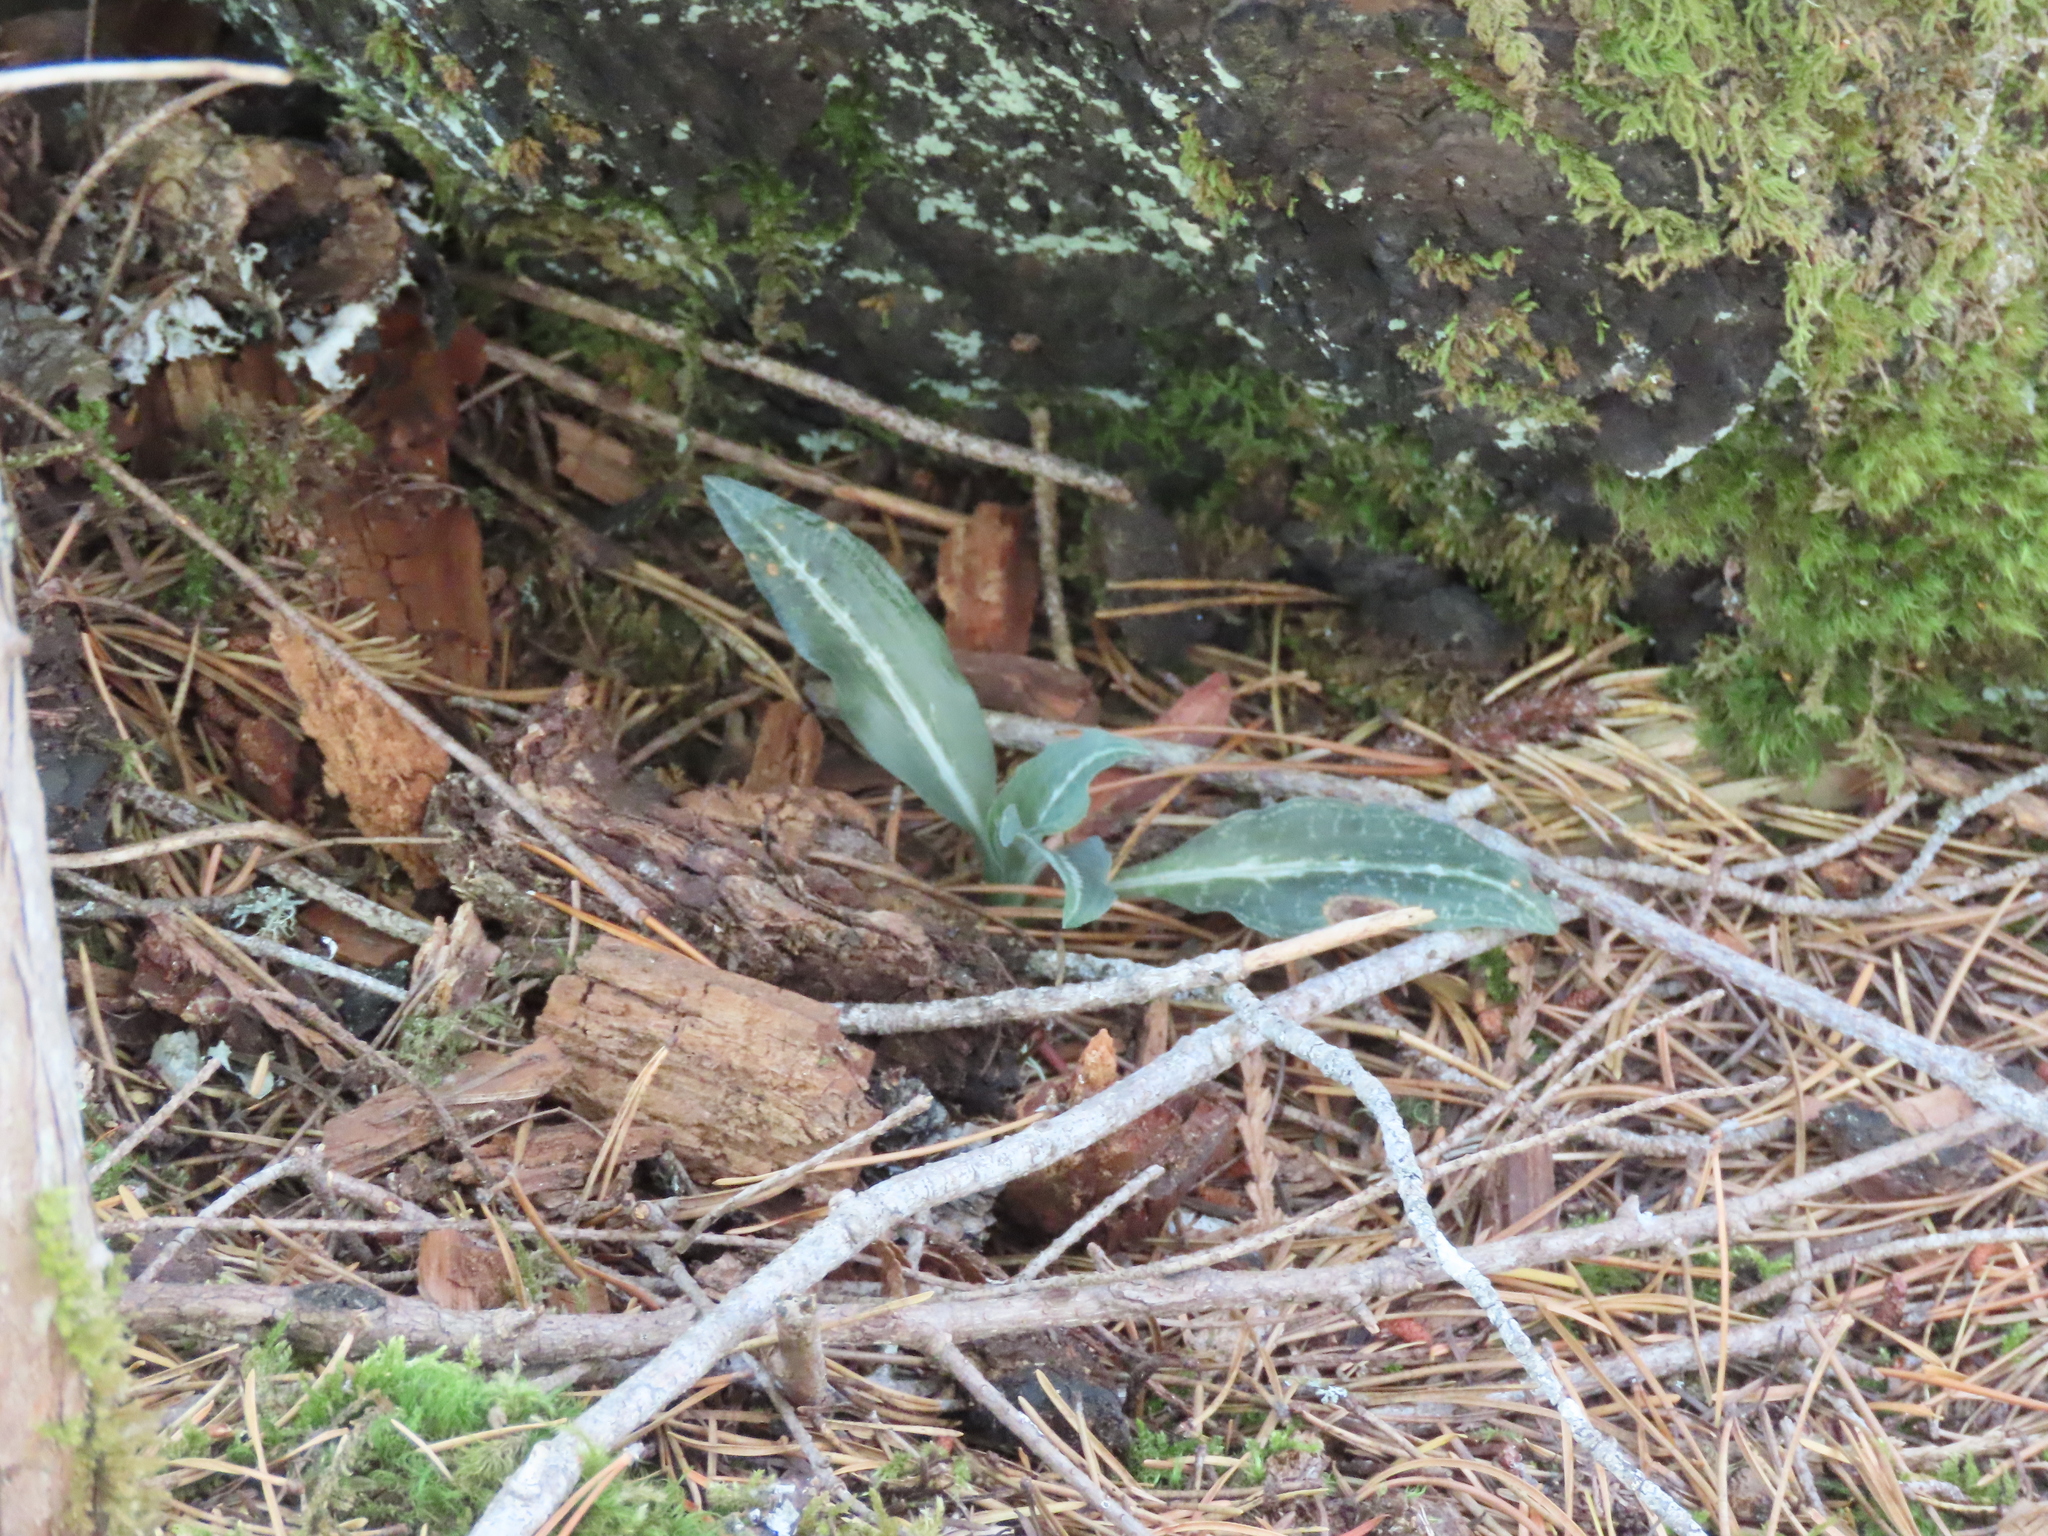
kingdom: Plantae
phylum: Tracheophyta
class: Liliopsida
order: Asparagales
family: Orchidaceae
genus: Goodyera
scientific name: Goodyera oblongifolia
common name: Giant rattlesnake-plantain
